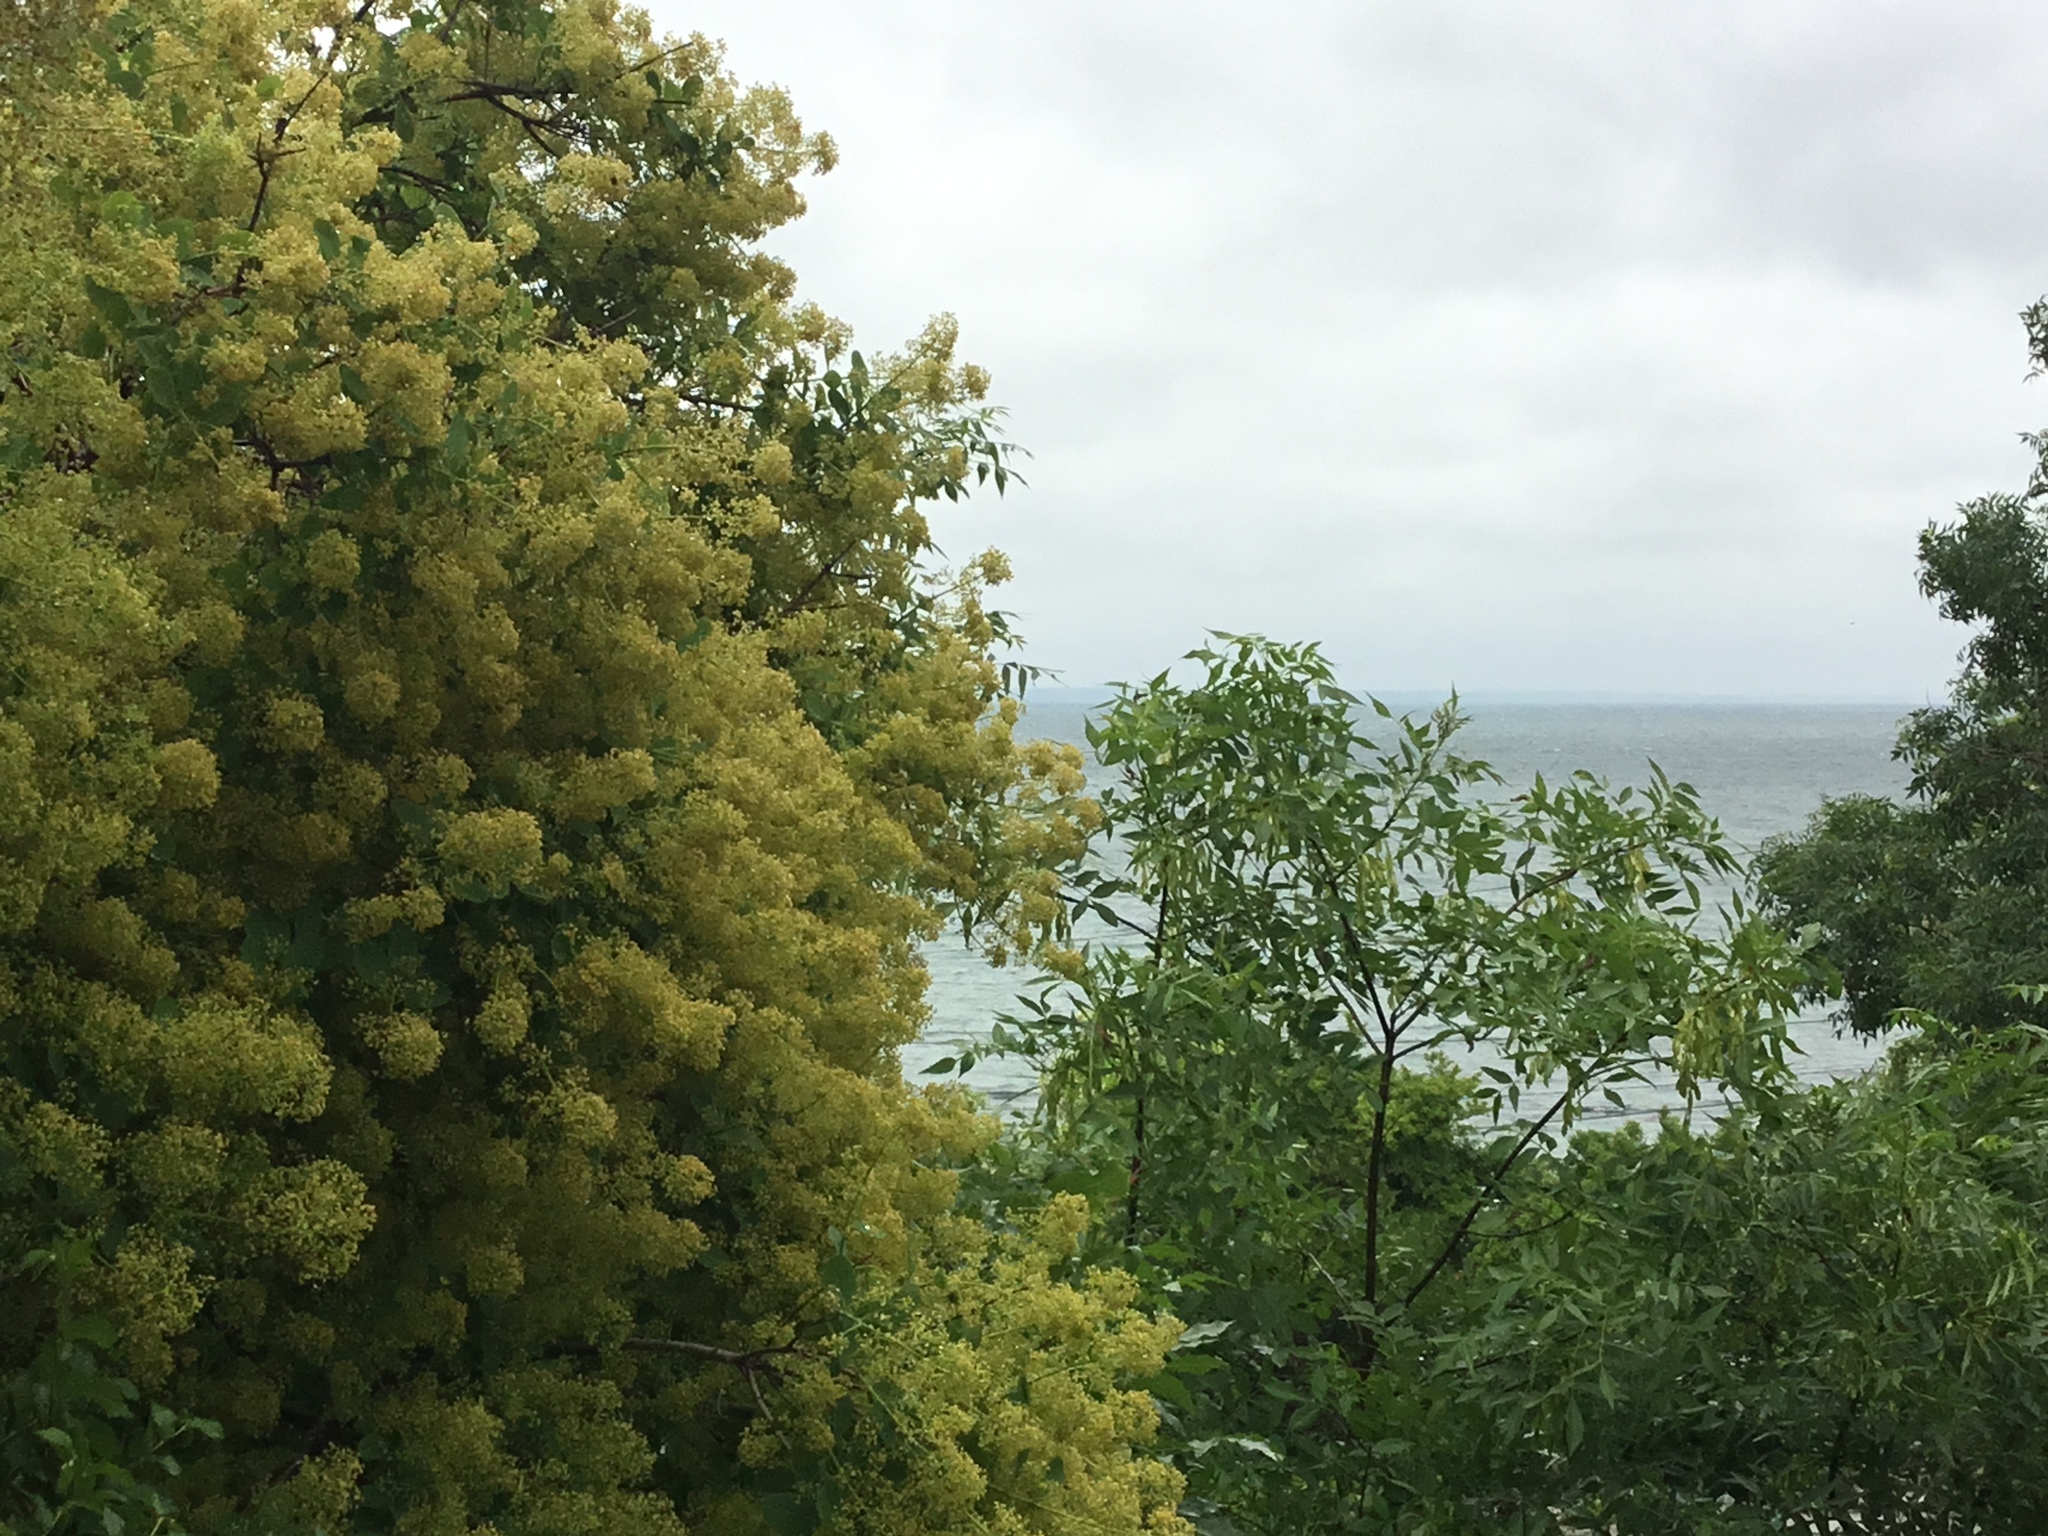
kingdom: Plantae
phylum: Tracheophyta
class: Magnoliopsida
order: Sapindales
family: Anacardiaceae
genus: Cotinus
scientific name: Cotinus coggygria
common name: Smoke-tree
